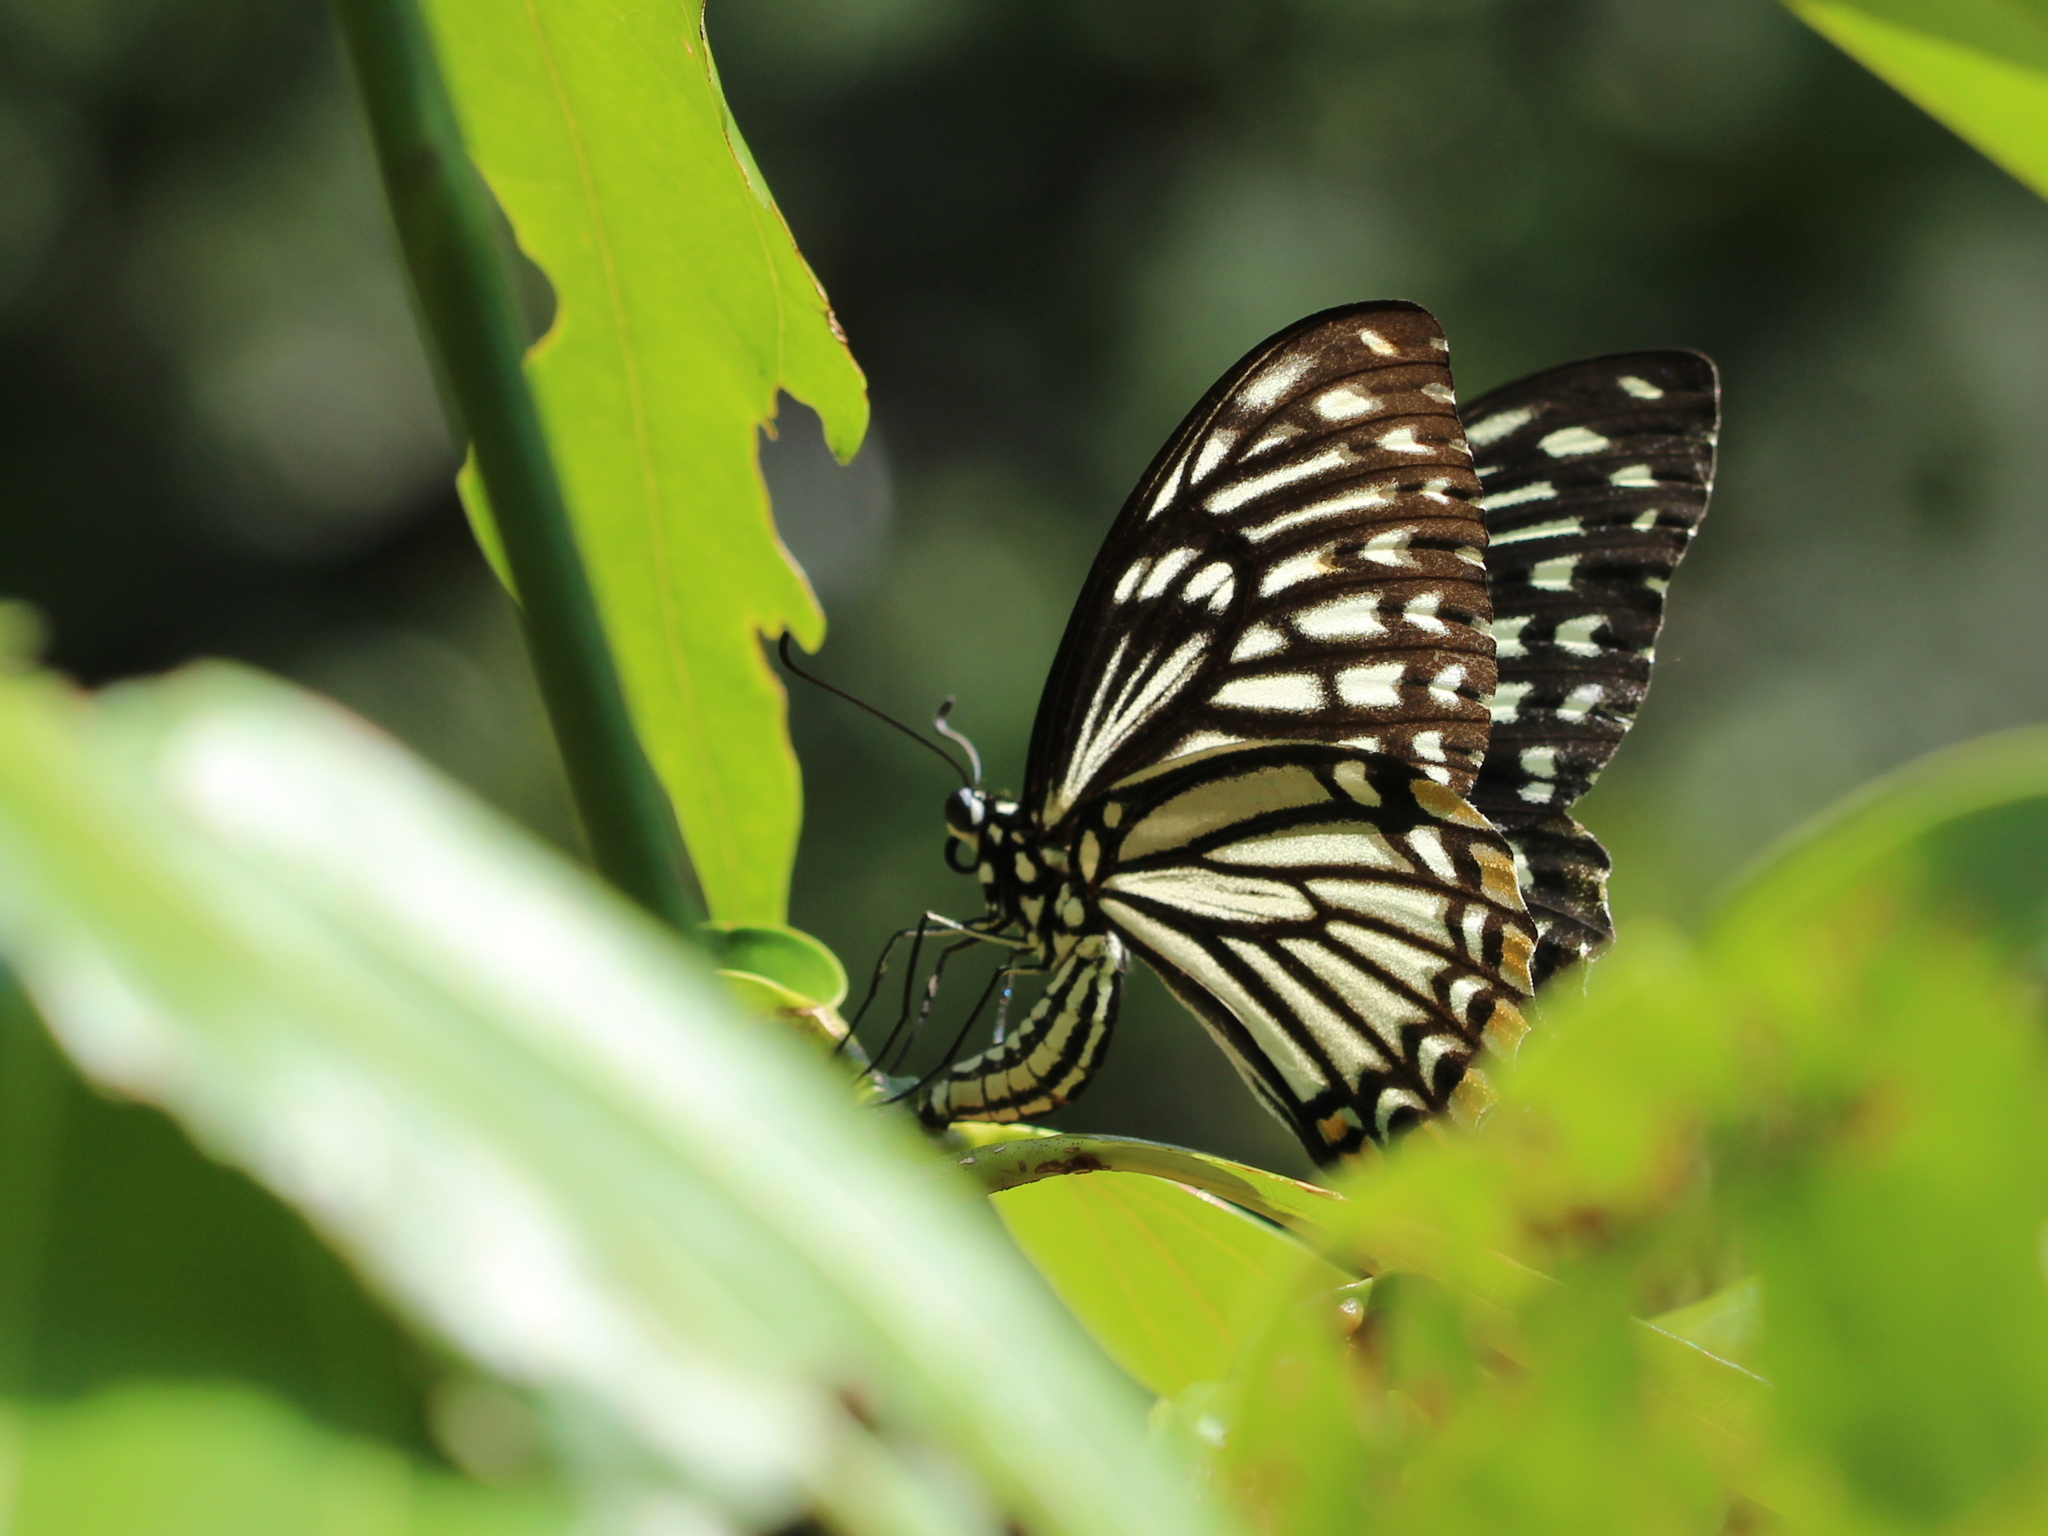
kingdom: Animalia
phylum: Arthropoda
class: Insecta
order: Lepidoptera
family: Papilionidae
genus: Chilasa
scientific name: Chilasa clytia
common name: Common mime
